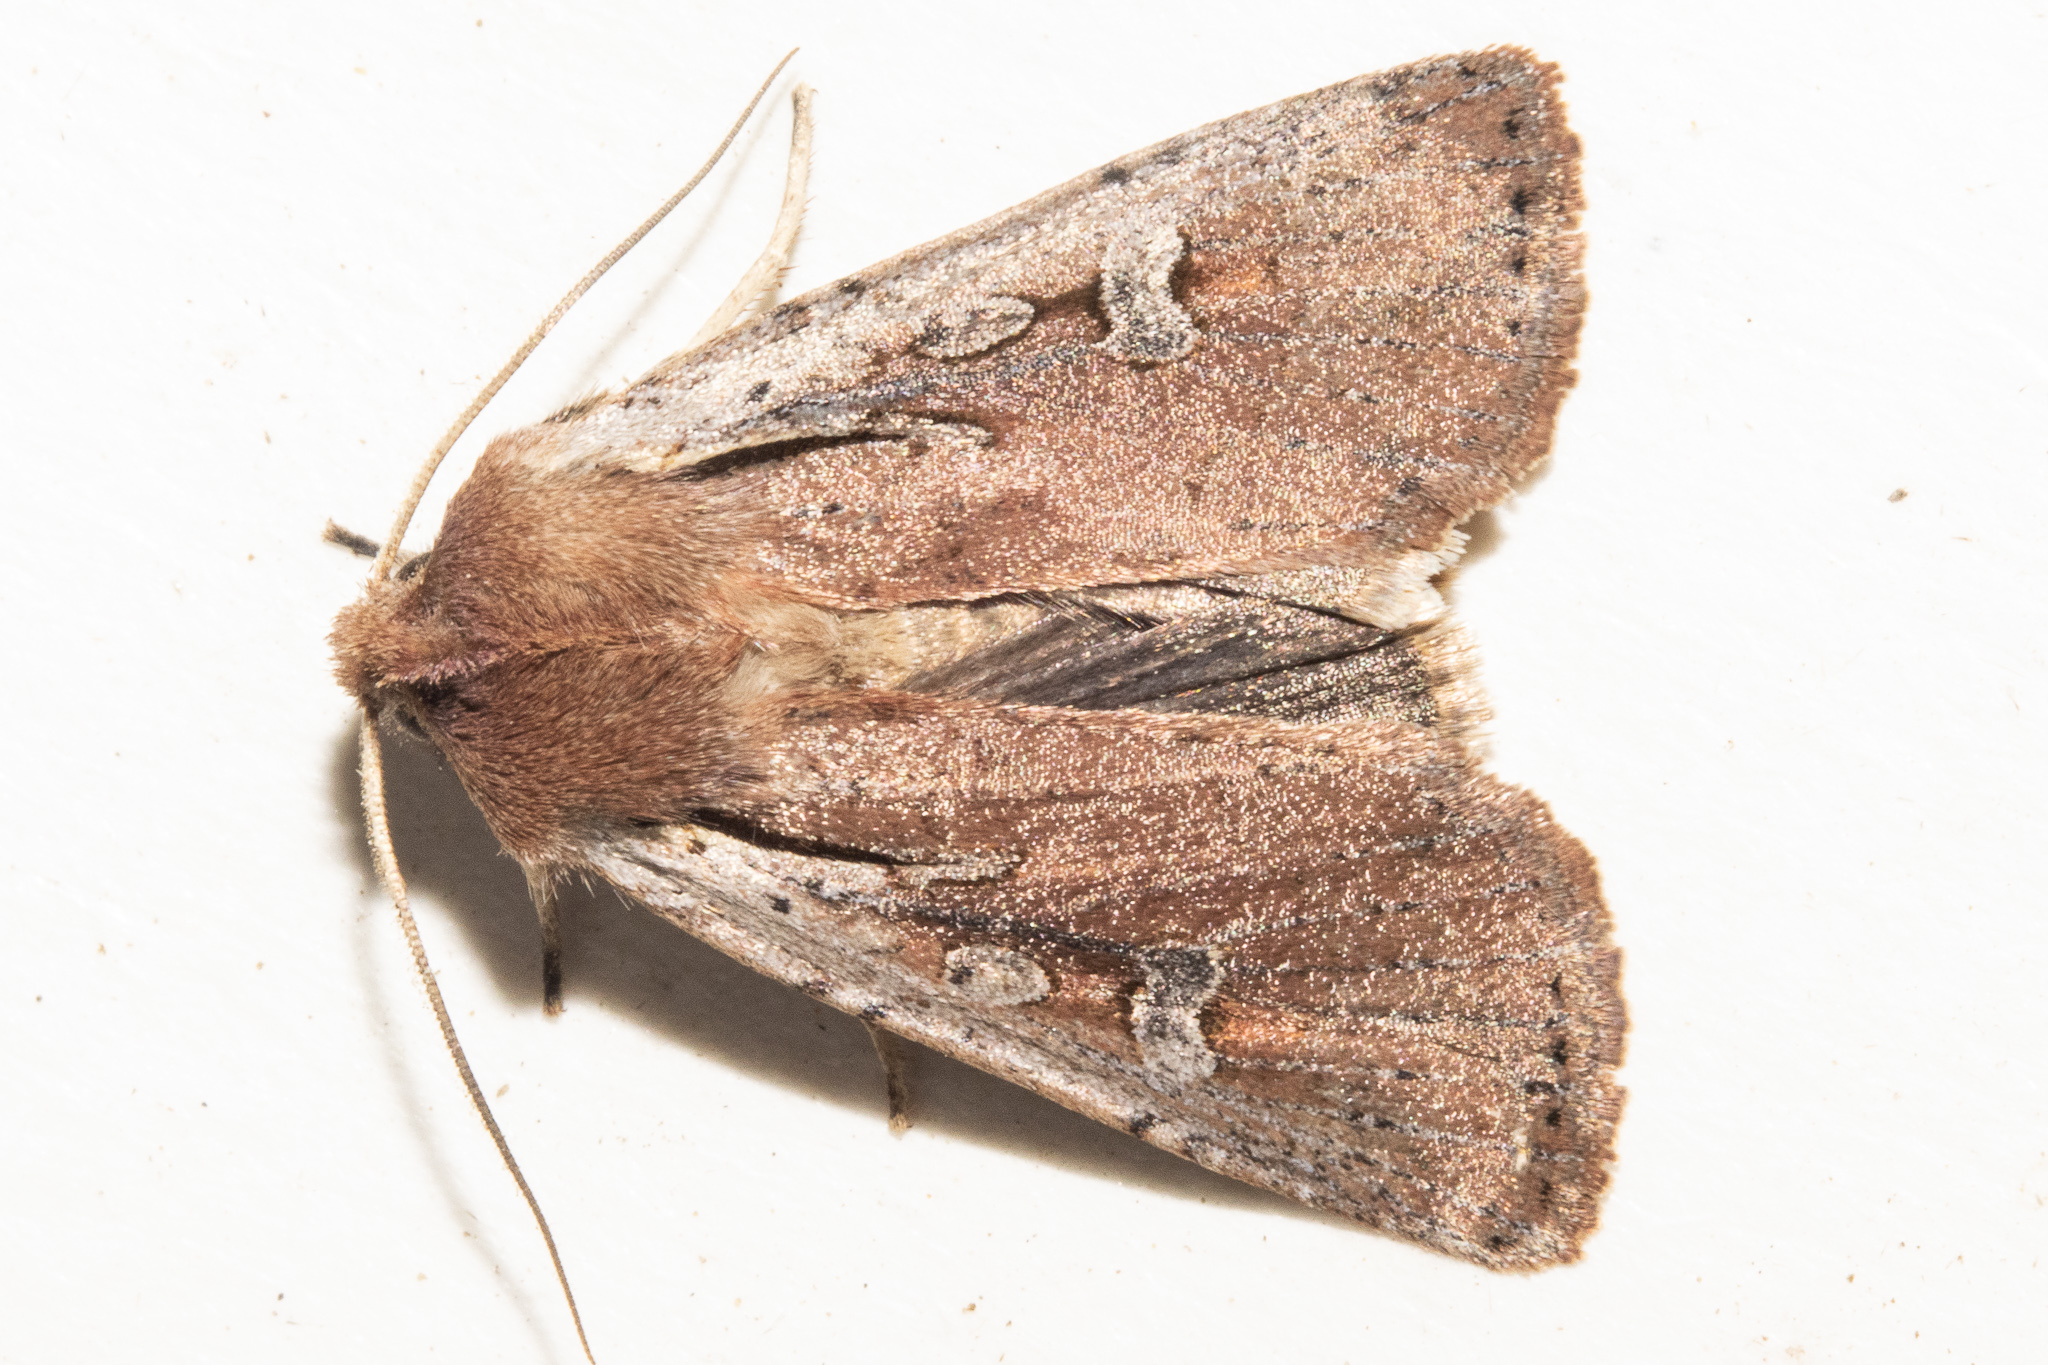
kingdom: Animalia
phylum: Arthropoda
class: Insecta
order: Lepidoptera
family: Noctuidae
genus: Ichneutica
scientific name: Ichneutica atristriga
